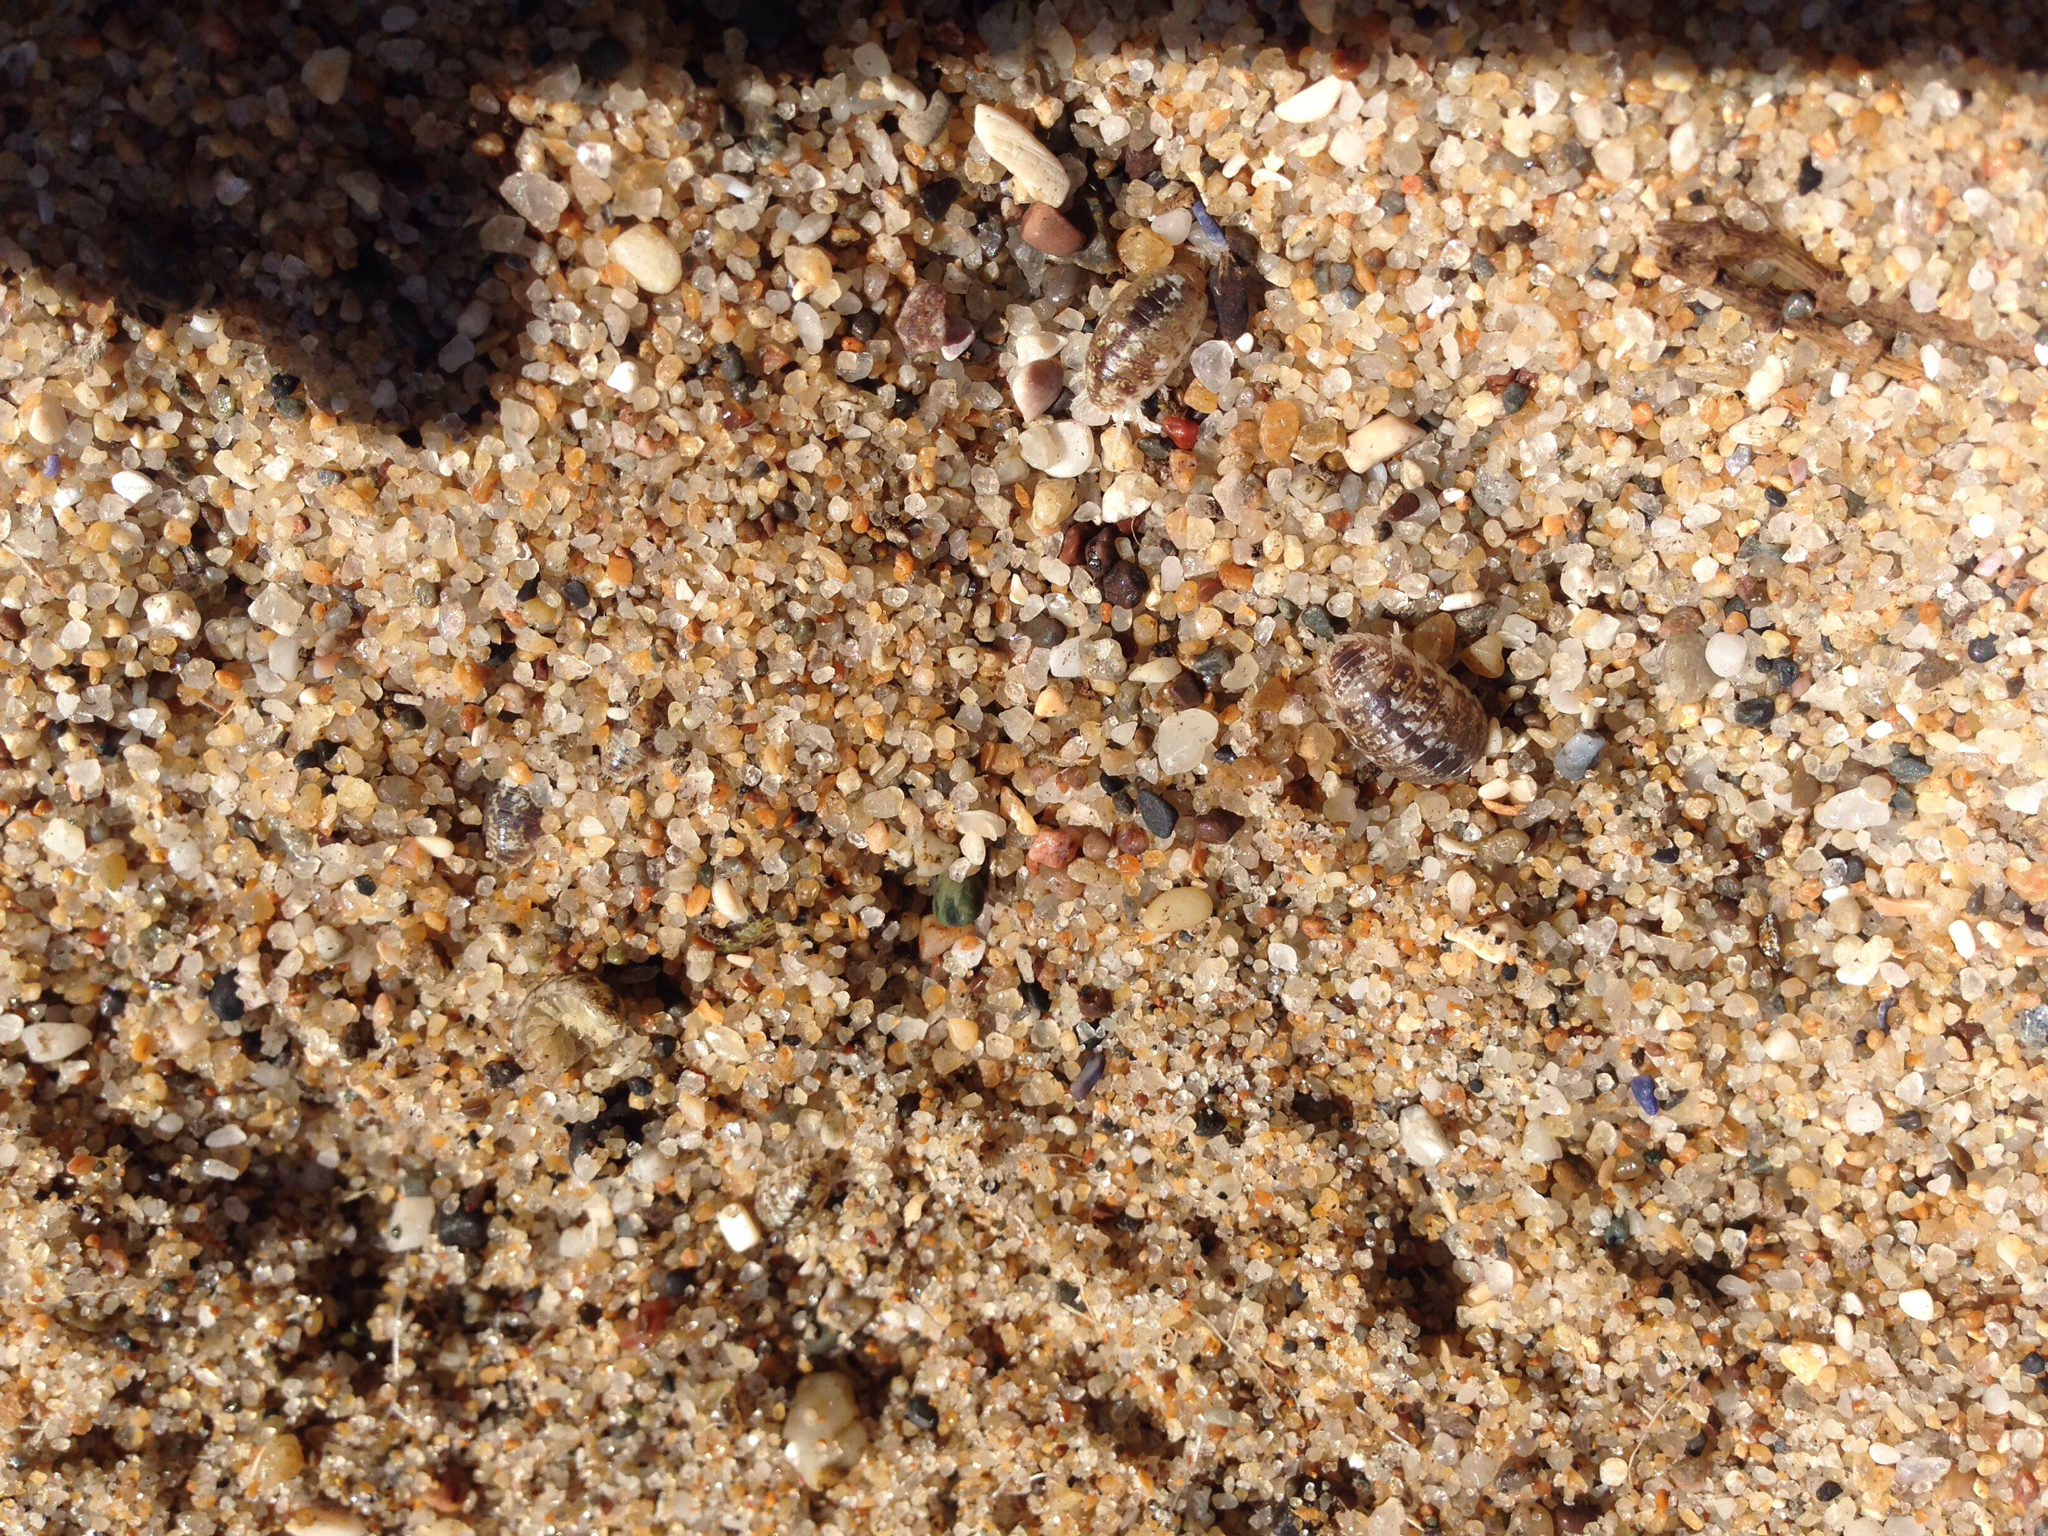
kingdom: Animalia
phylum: Arthropoda
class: Malacostraca
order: Isopoda
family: Alloniscidae
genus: Alloniscus
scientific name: Alloniscus perconvexus
